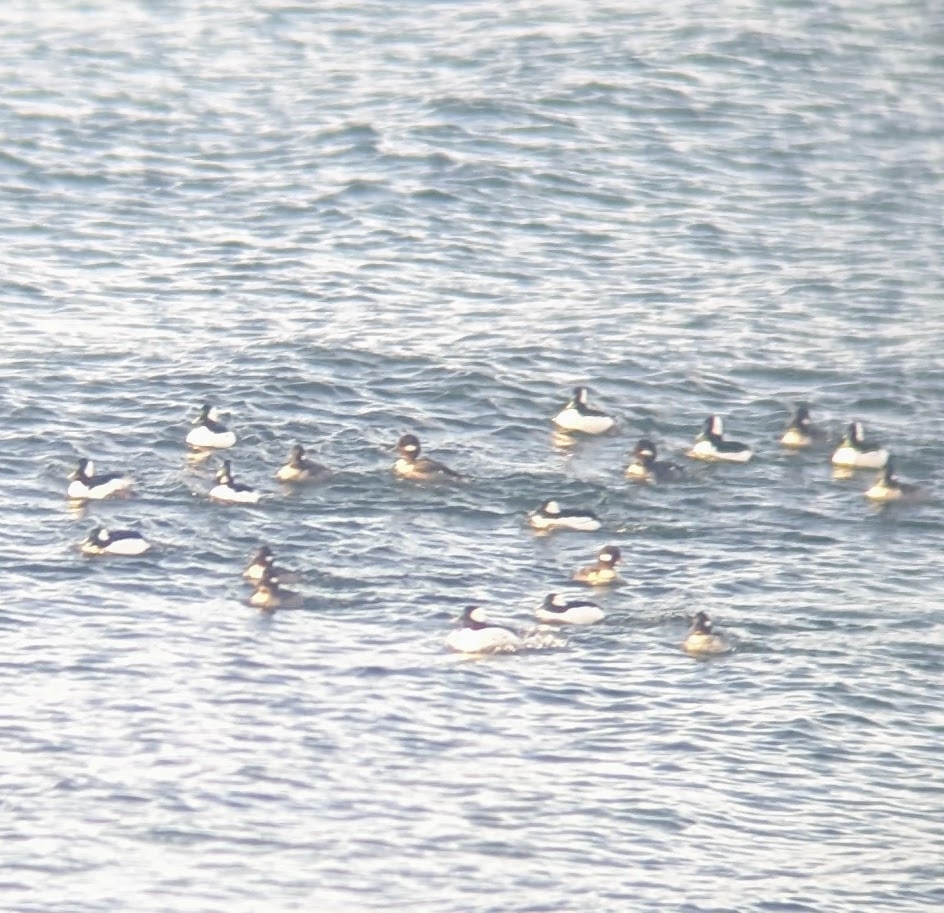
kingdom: Animalia
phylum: Chordata
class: Aves
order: Anseriformes
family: Anatidae
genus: Bucephala
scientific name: Bucephala albeola
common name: Bufflehead
